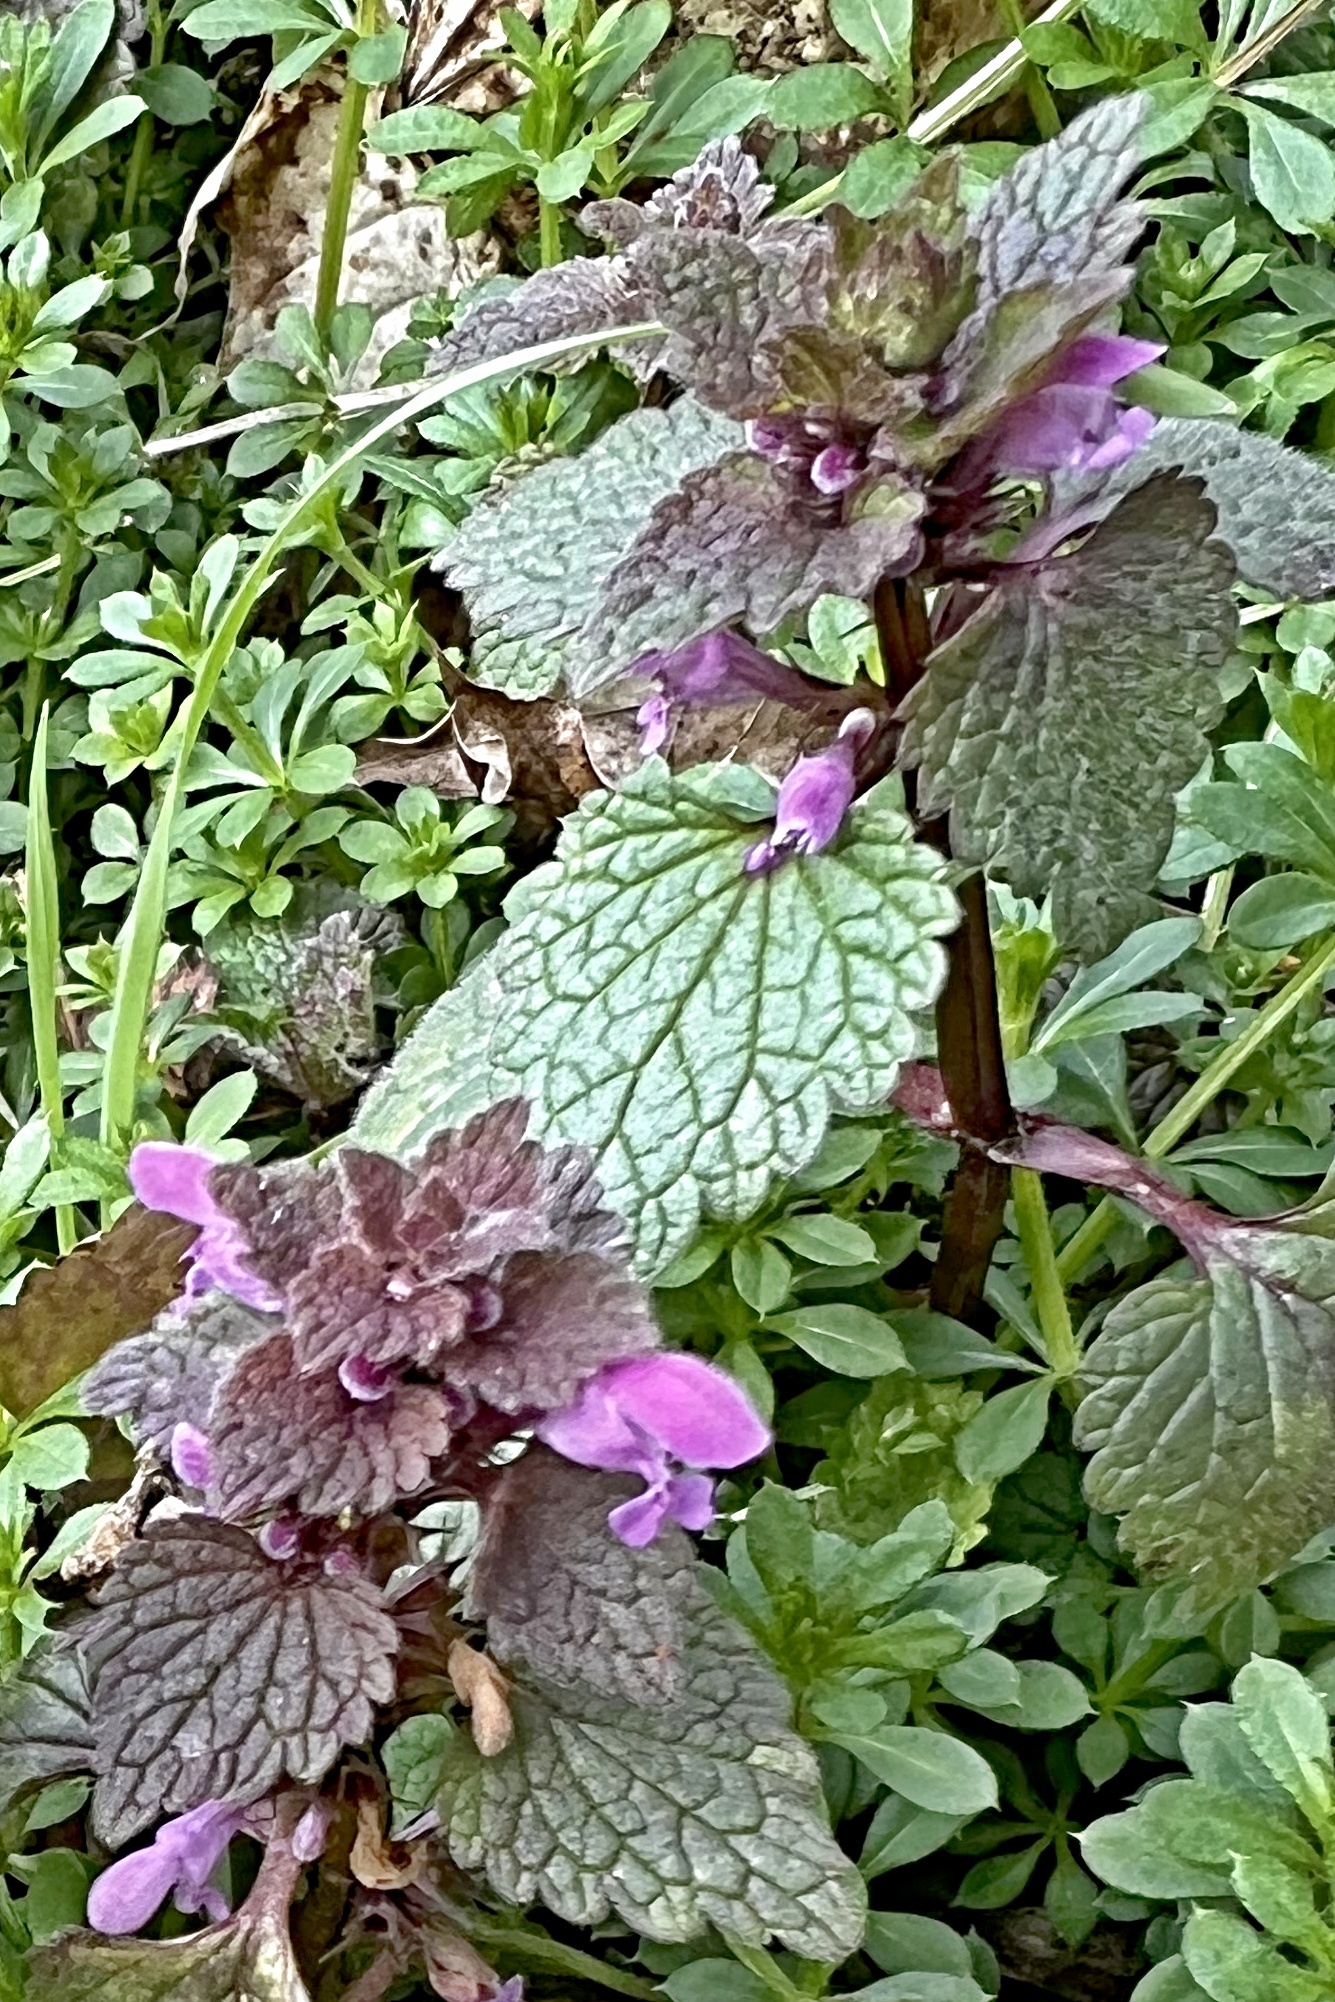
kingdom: Plantae
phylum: Tracheophyta
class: Magnoliopsida
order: Lamiales
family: Lamiaceae
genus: Lamium
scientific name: Lamium purpureum
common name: Red dead-nettle
